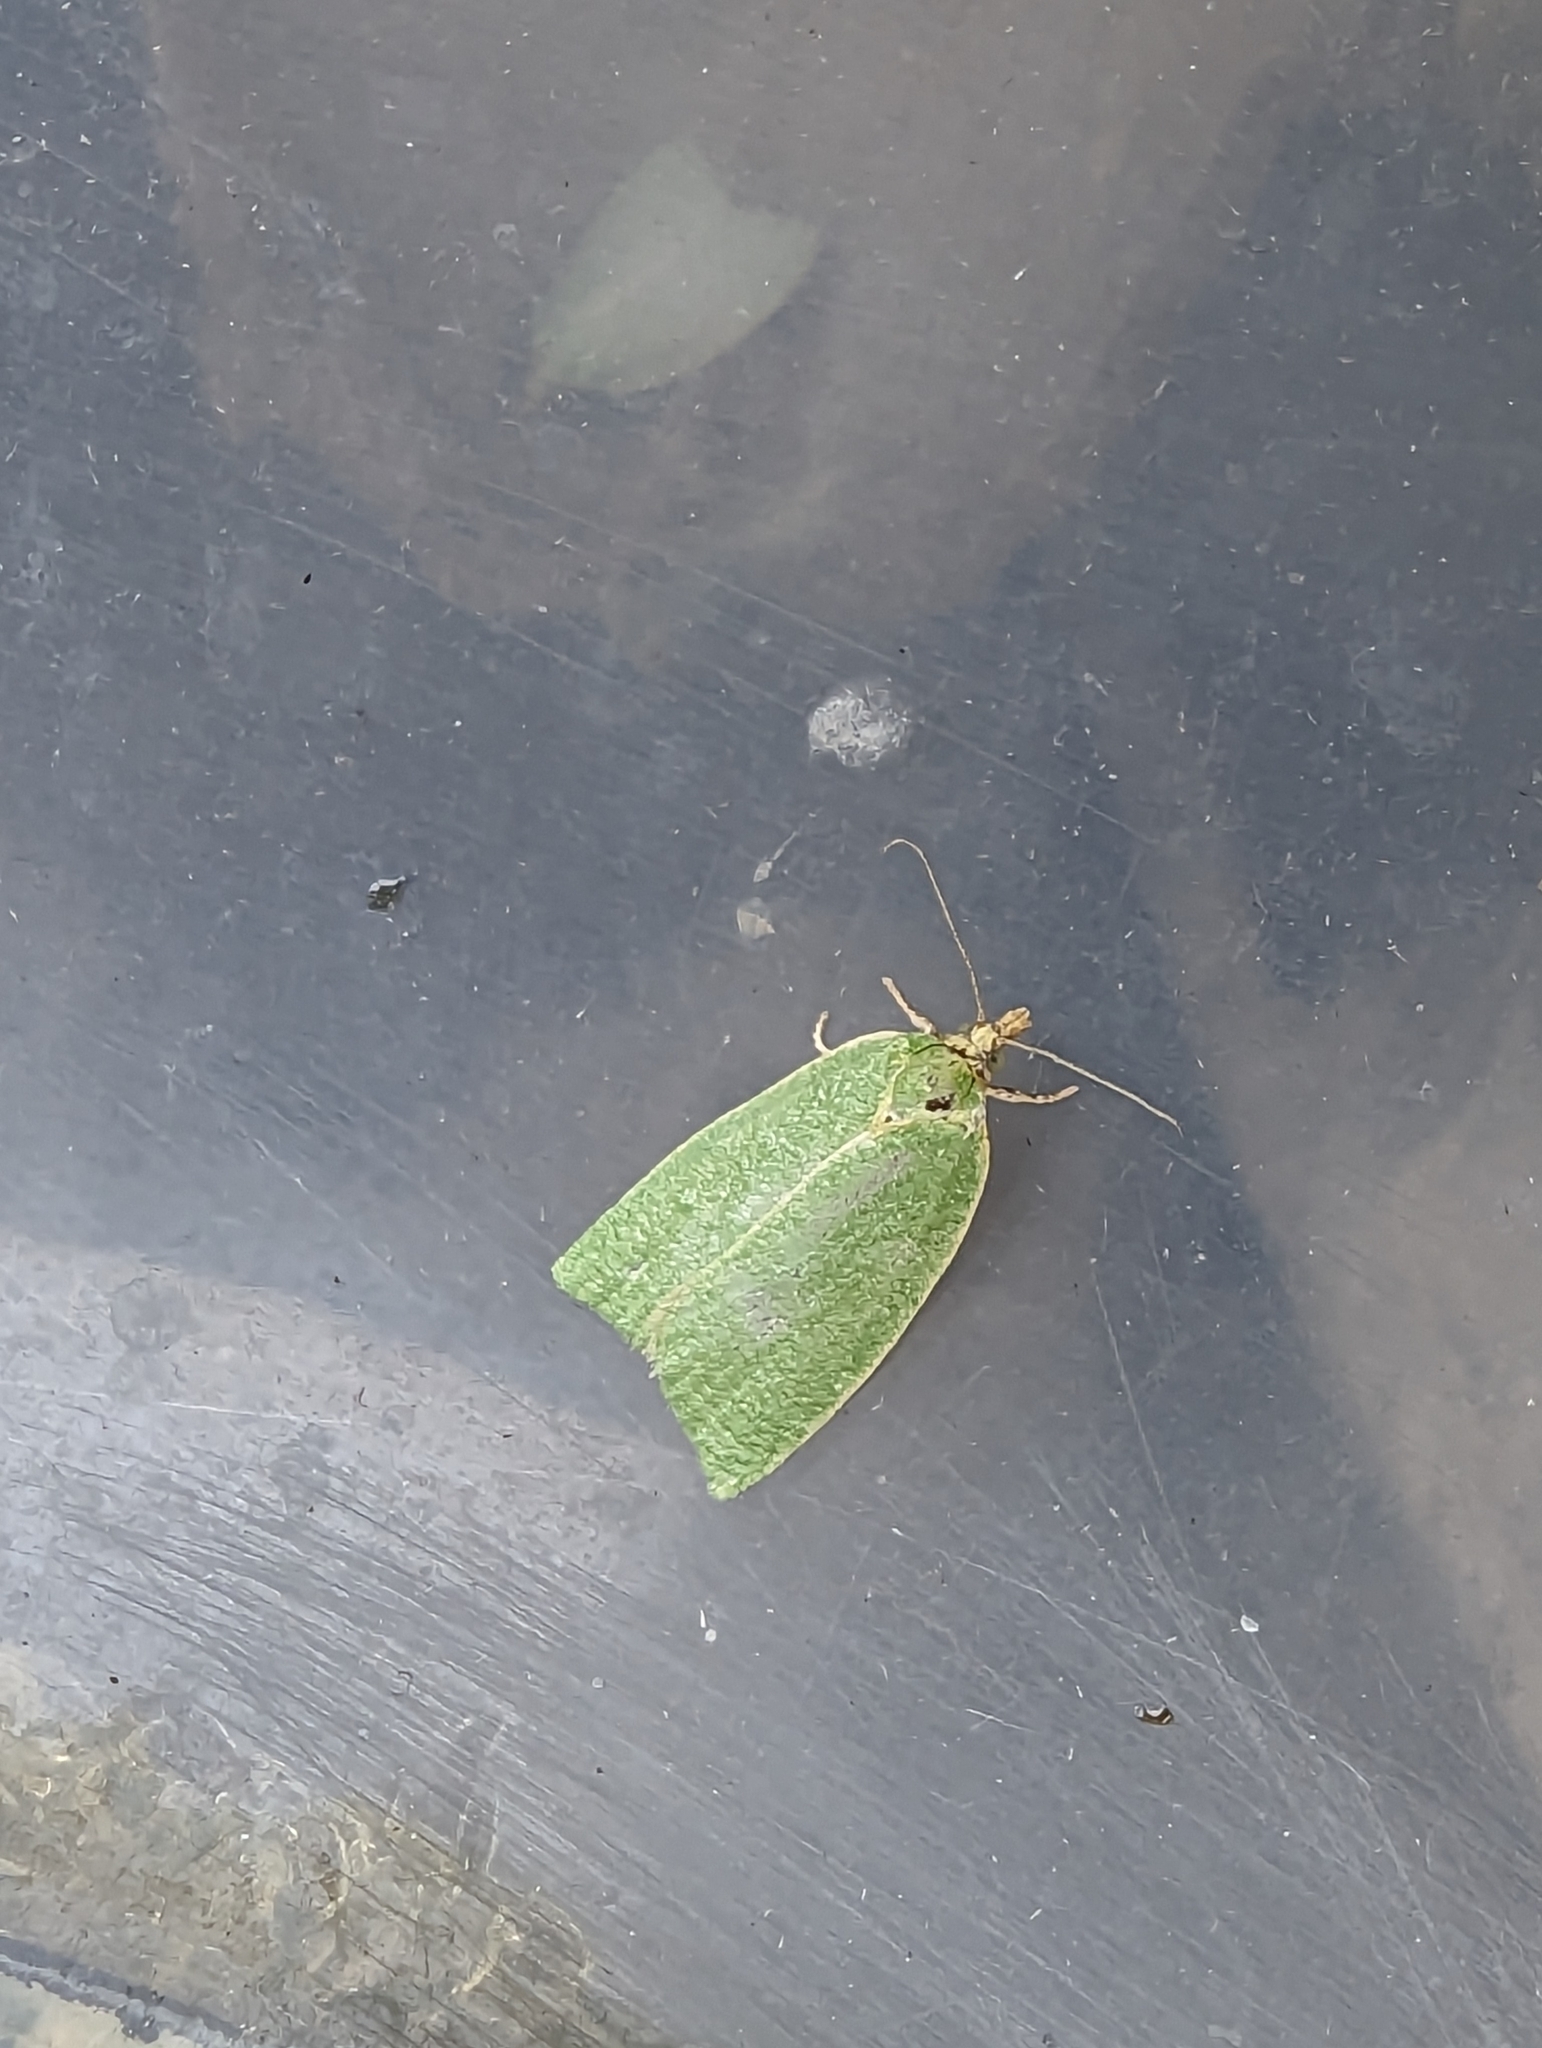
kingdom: Animalia
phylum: Arthropoda
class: Insecta
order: Lepidoptera
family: Tortricidae
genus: Tortrix
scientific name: Tortrix viridana
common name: Green oak tortrix
